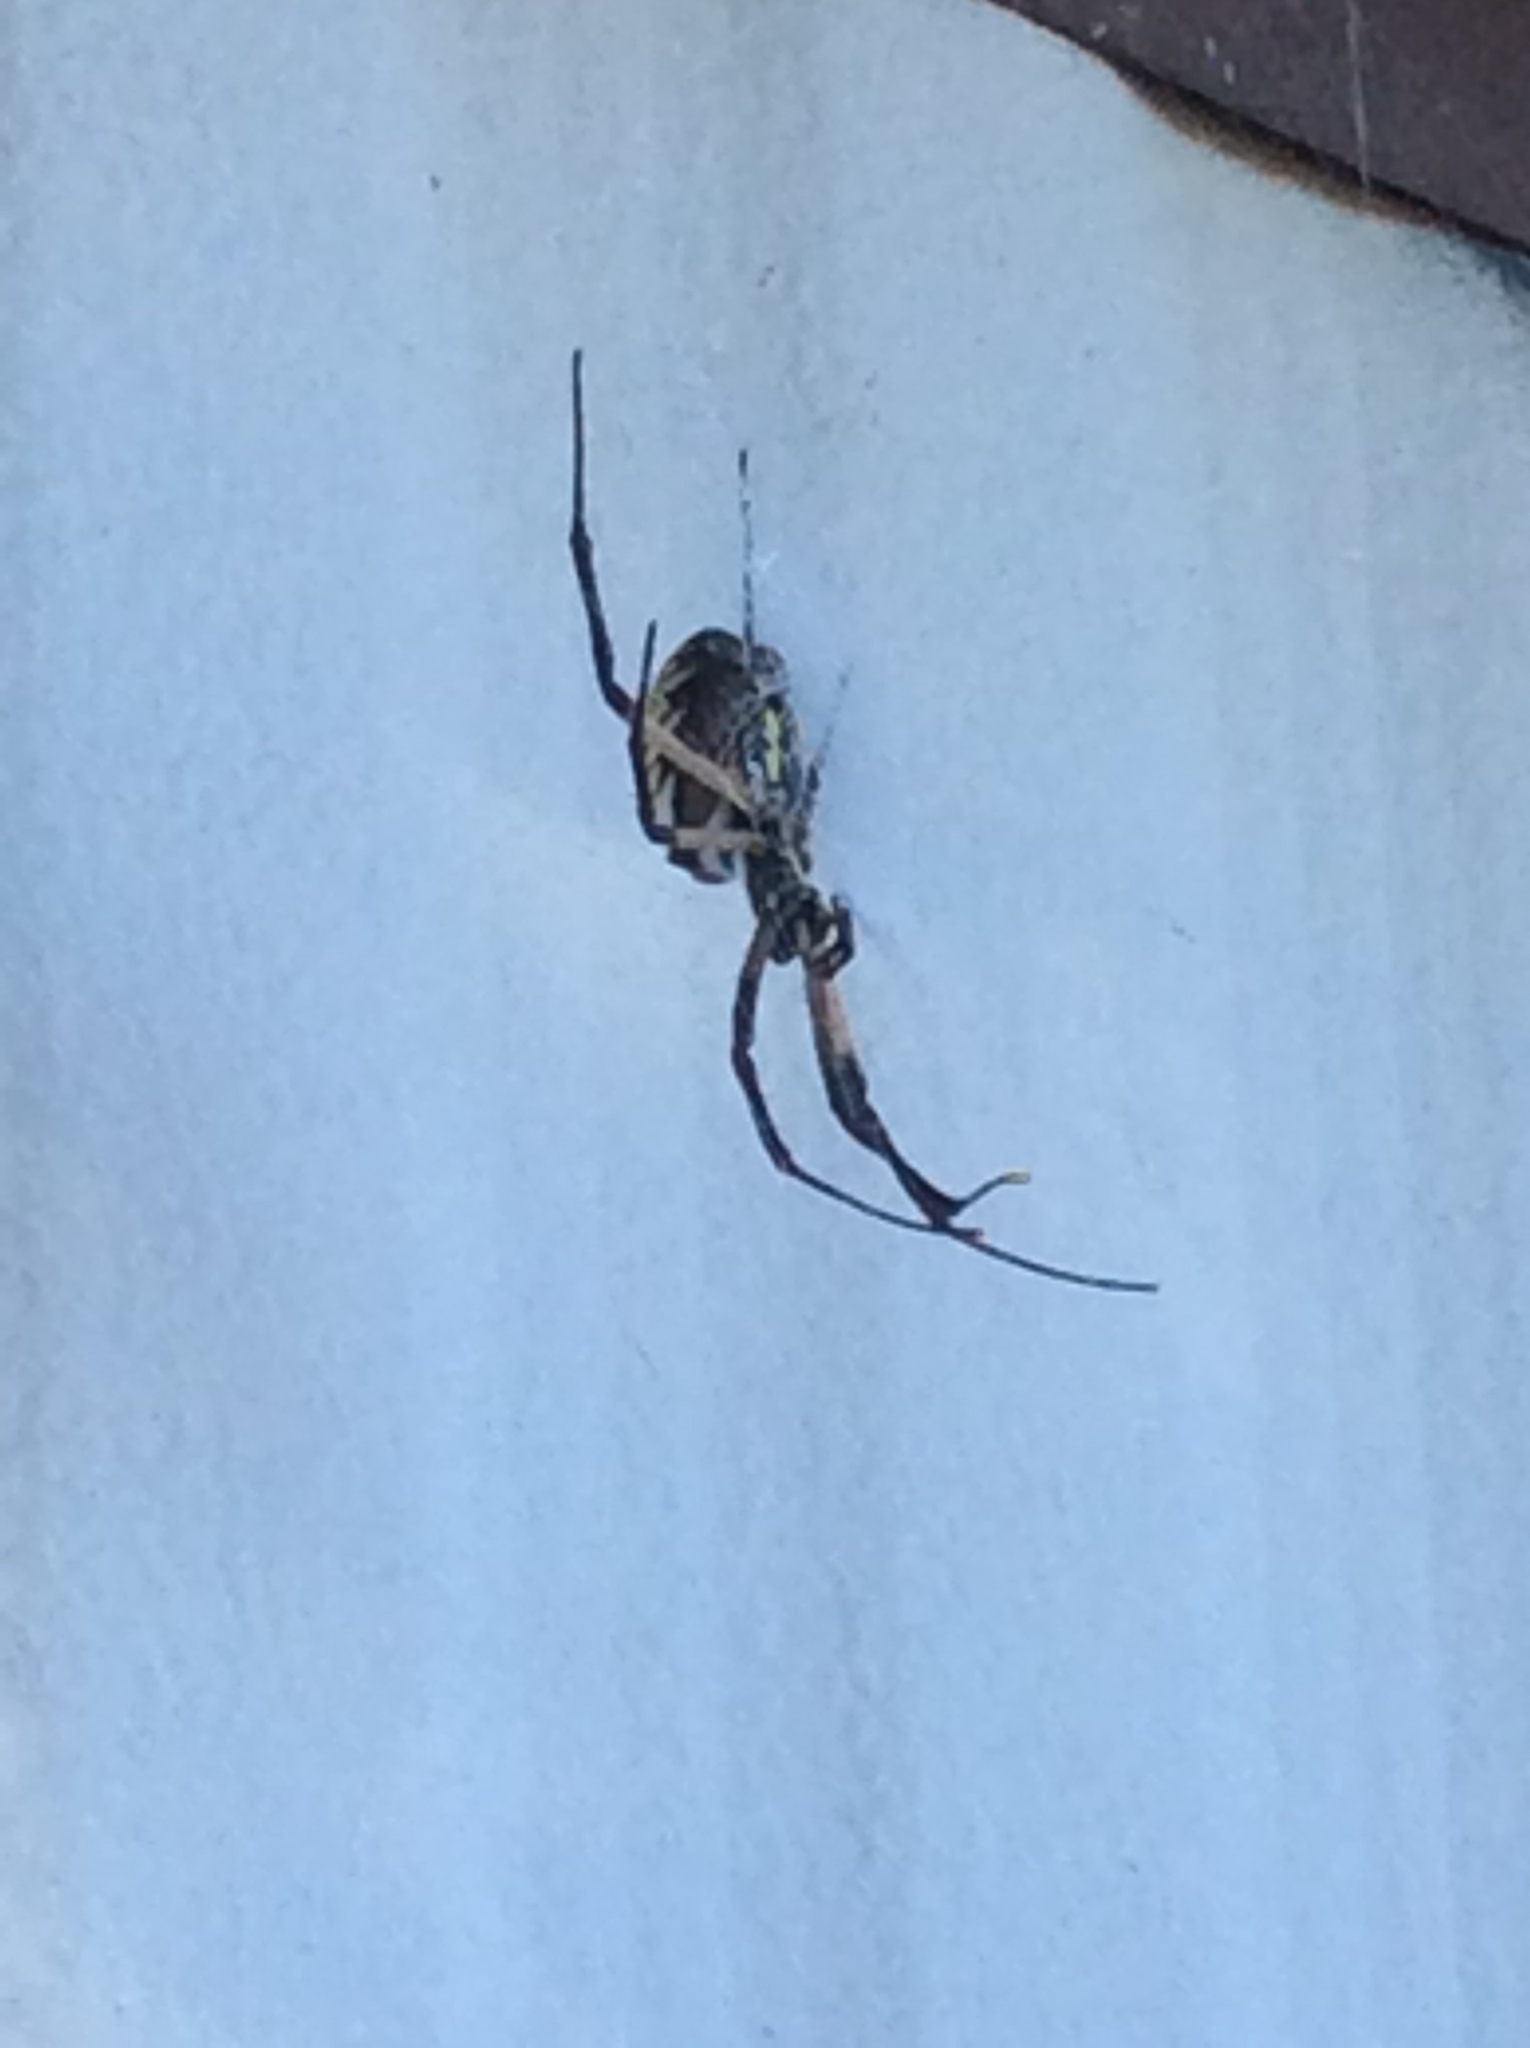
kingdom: Animalia
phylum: Arthropoda
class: Arachnida
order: Araneae
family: Araneidae
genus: Argiope
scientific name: Argiope aurantia
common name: Orb weavers
